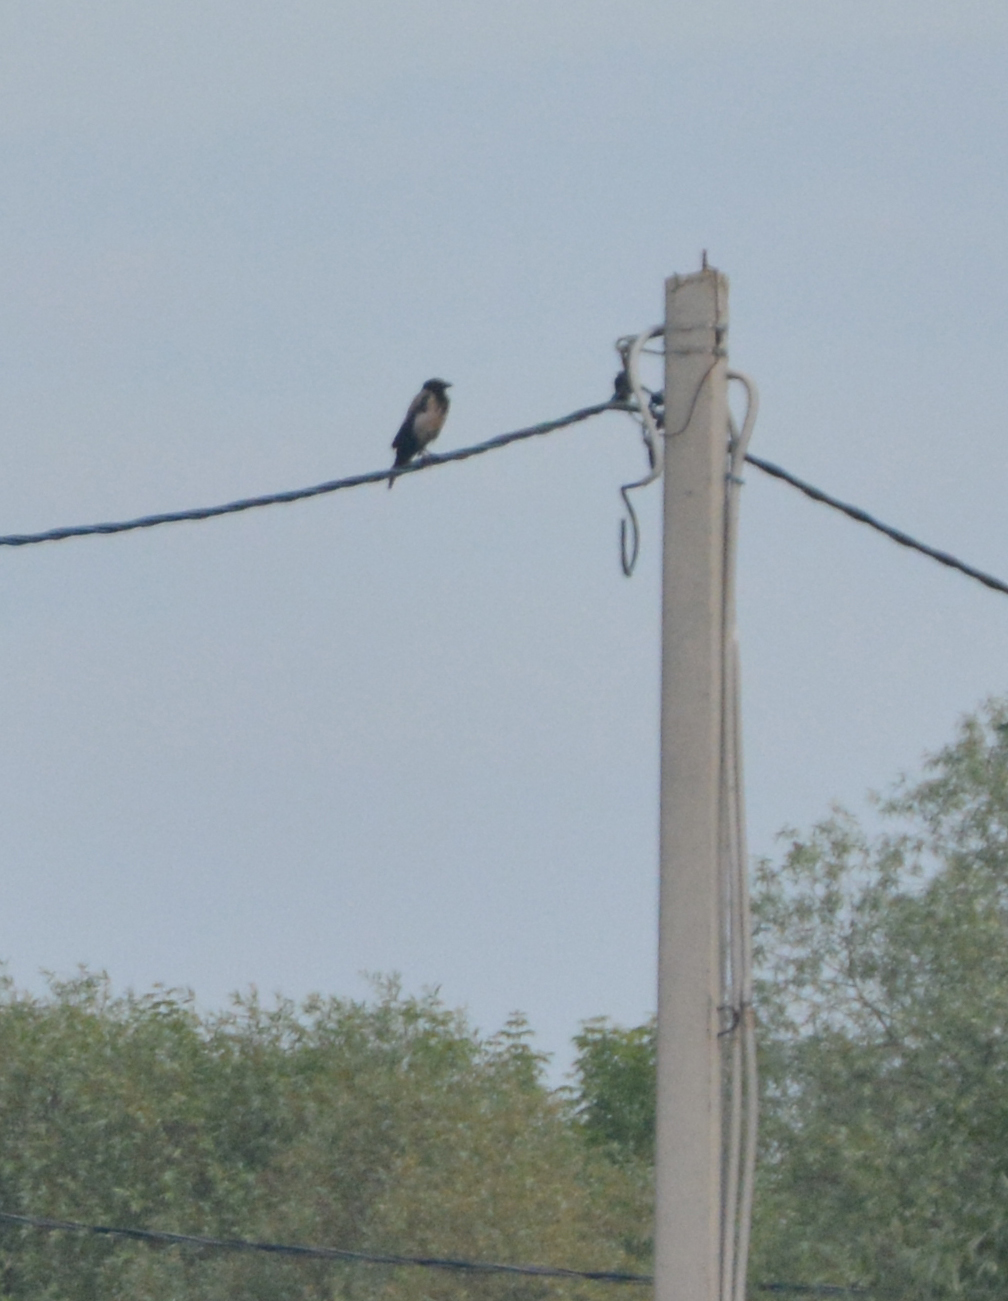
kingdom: Animalia
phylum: Chordata
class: Aves
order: Passeriformes
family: Corvidae
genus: Corvus
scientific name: Corvus cornix
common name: Hooded crow
